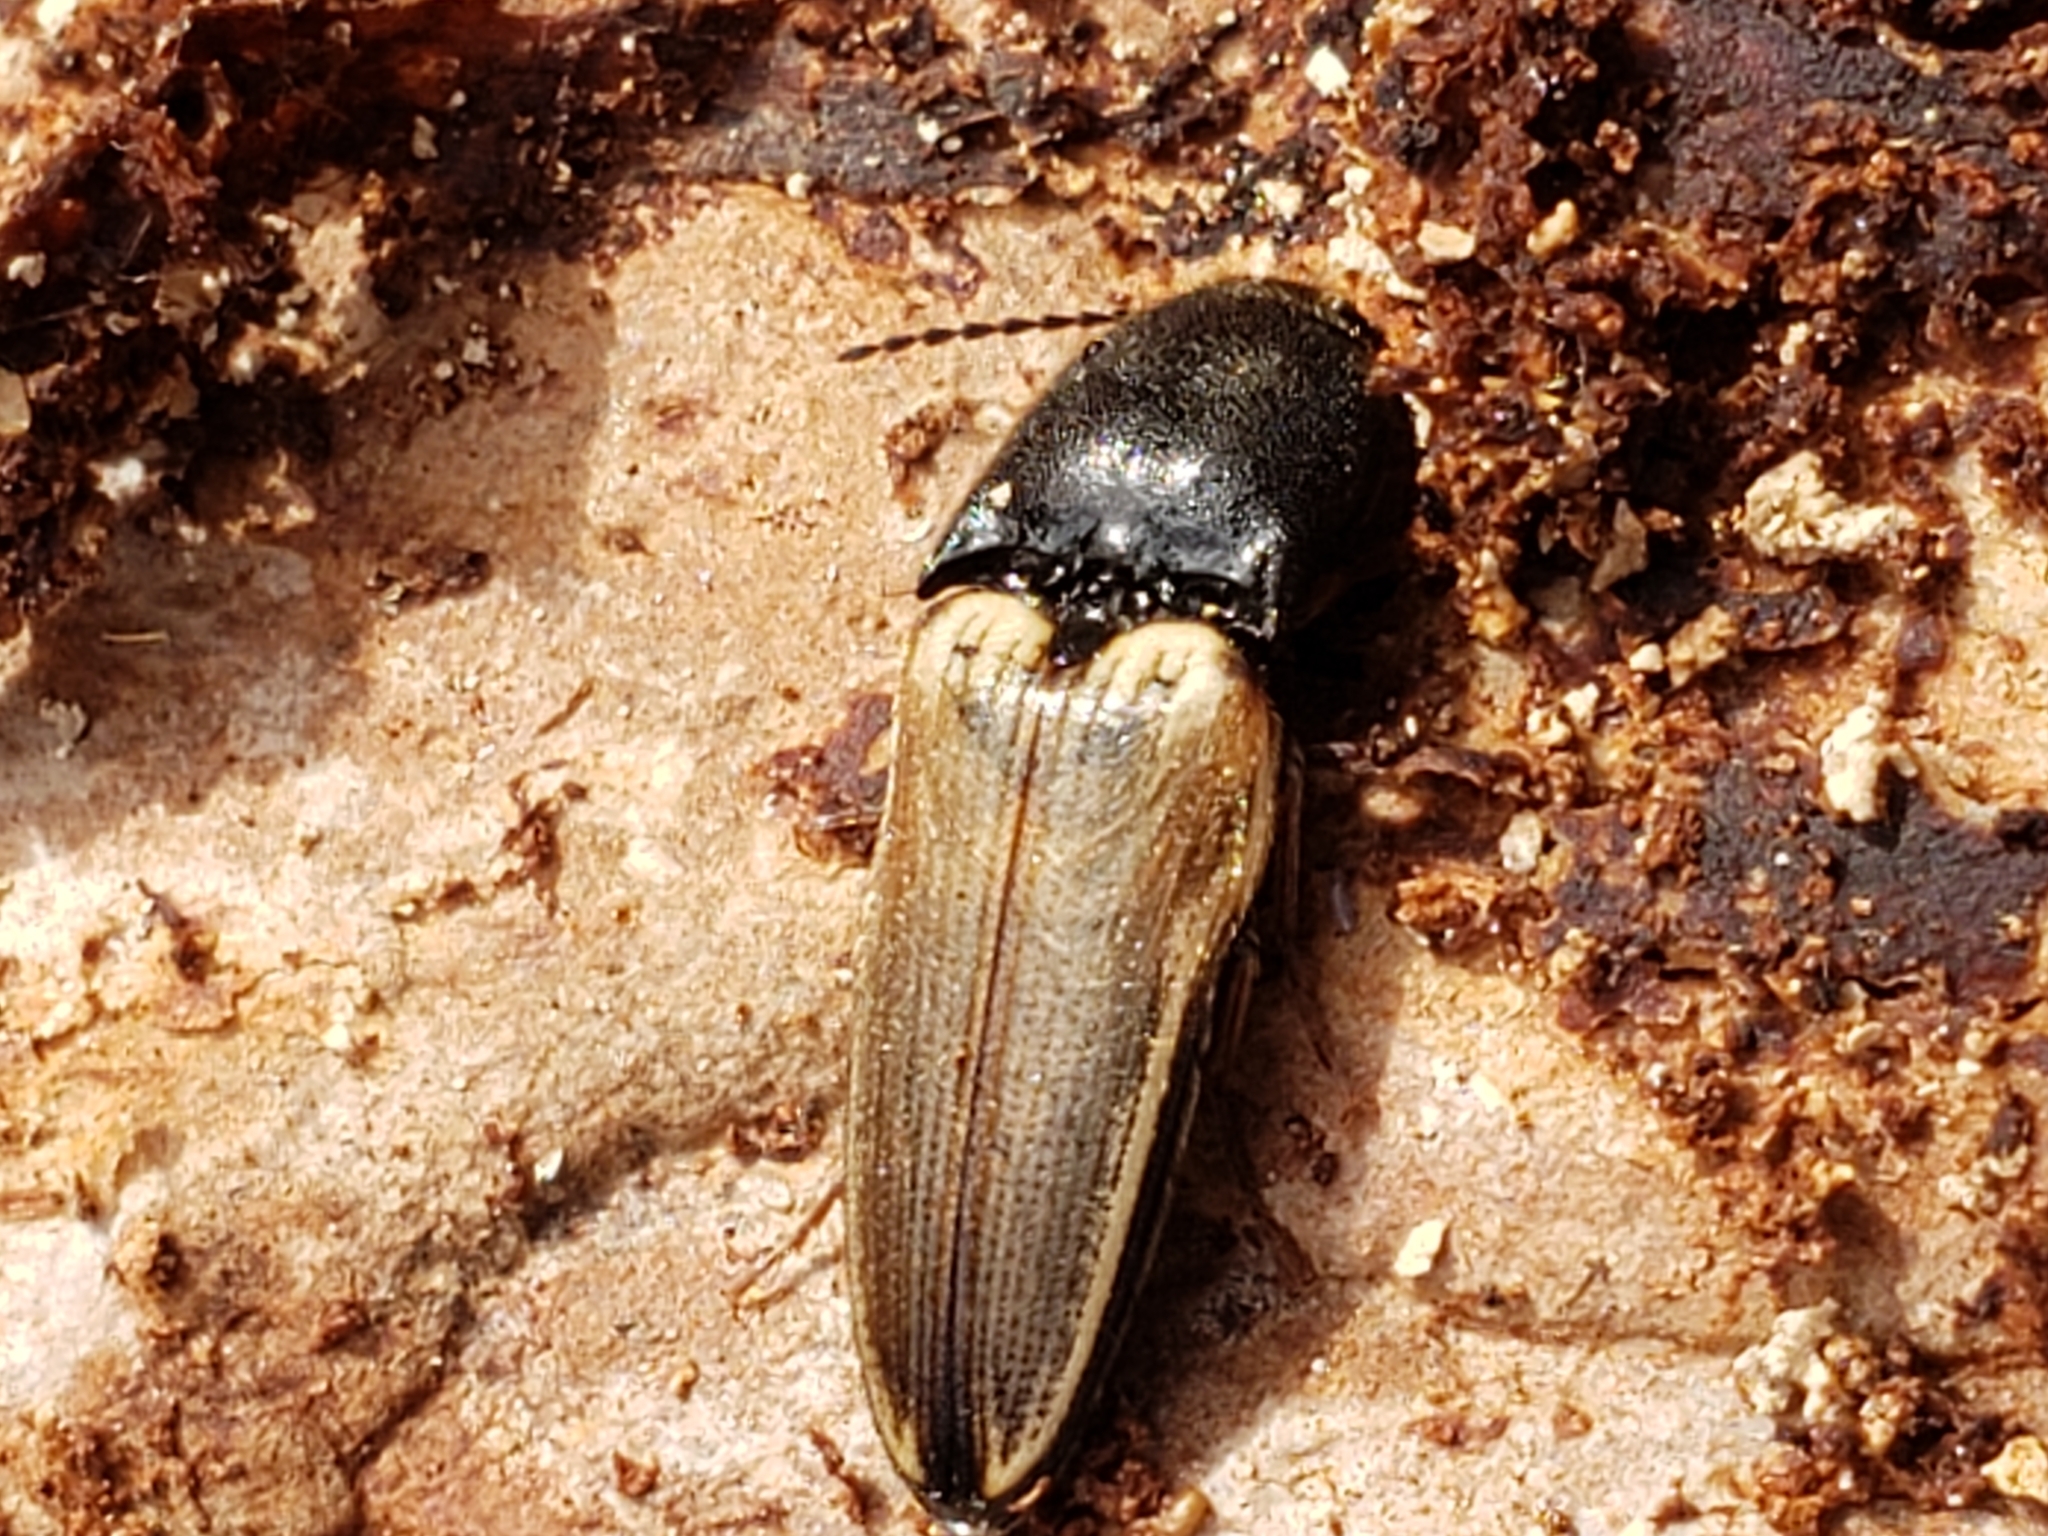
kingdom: Animalia
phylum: Arthropoda
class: Insecta
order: Coleoptera
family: Elateridae
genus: Ampedus
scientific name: Ampedus nigricollis
